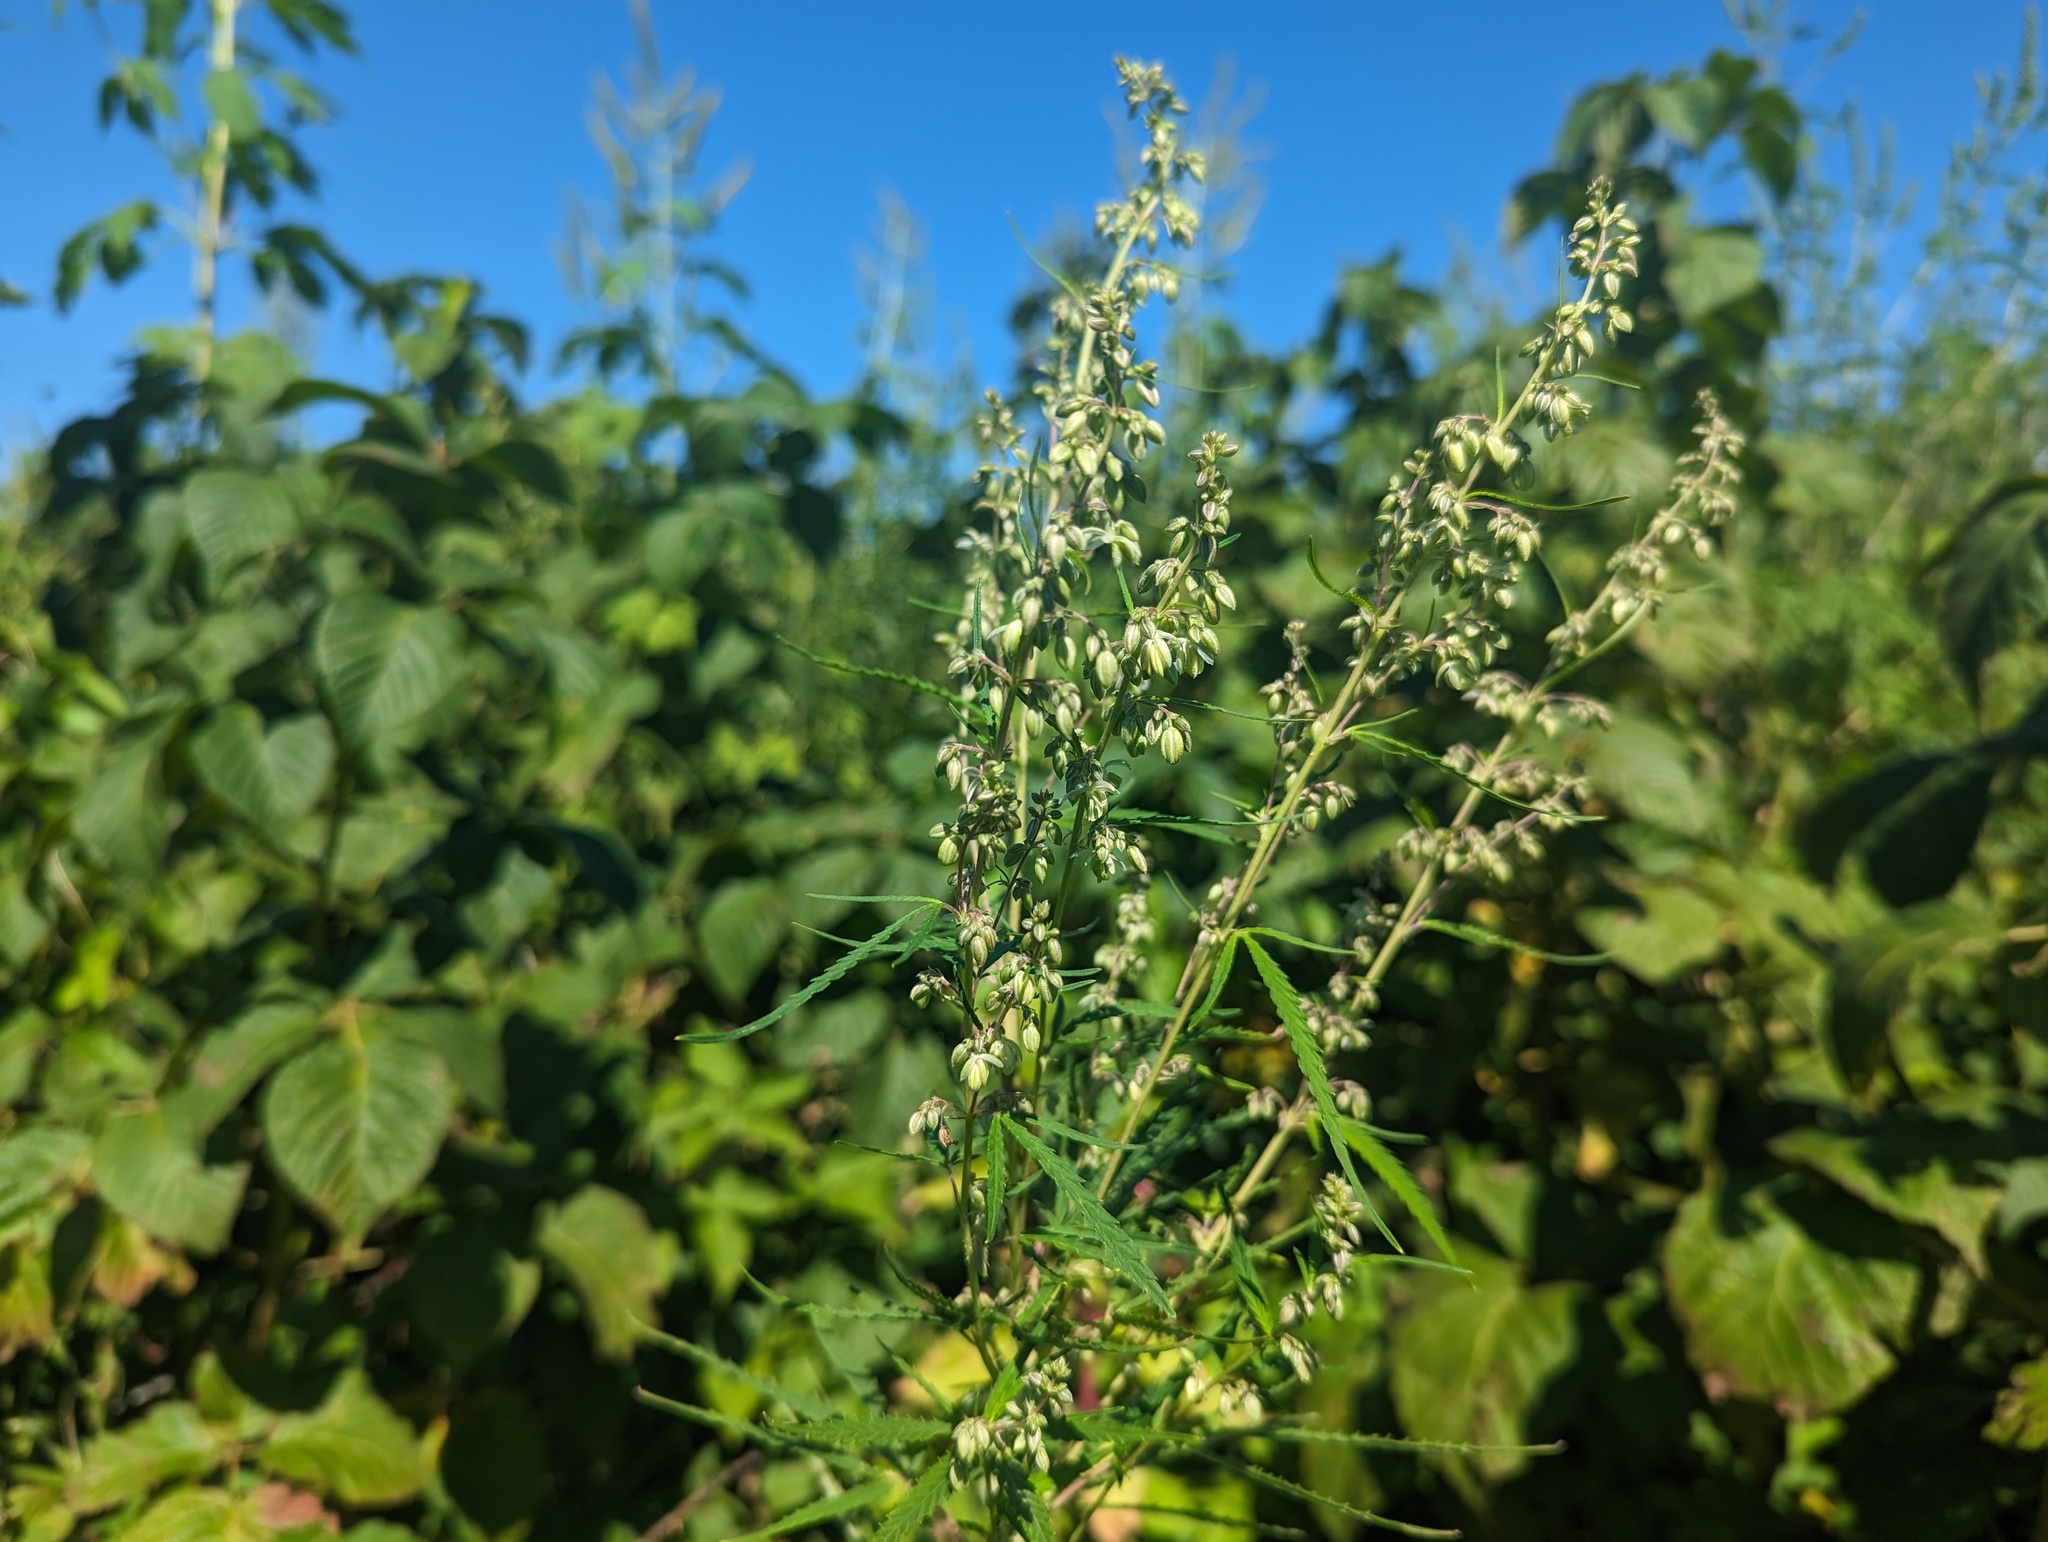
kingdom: Plantae
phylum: Tracheophyta
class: Magnoliopsida
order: Rosales
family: Cannabaceae
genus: Cannabis
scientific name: Cannabis sativa
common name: Hemp
